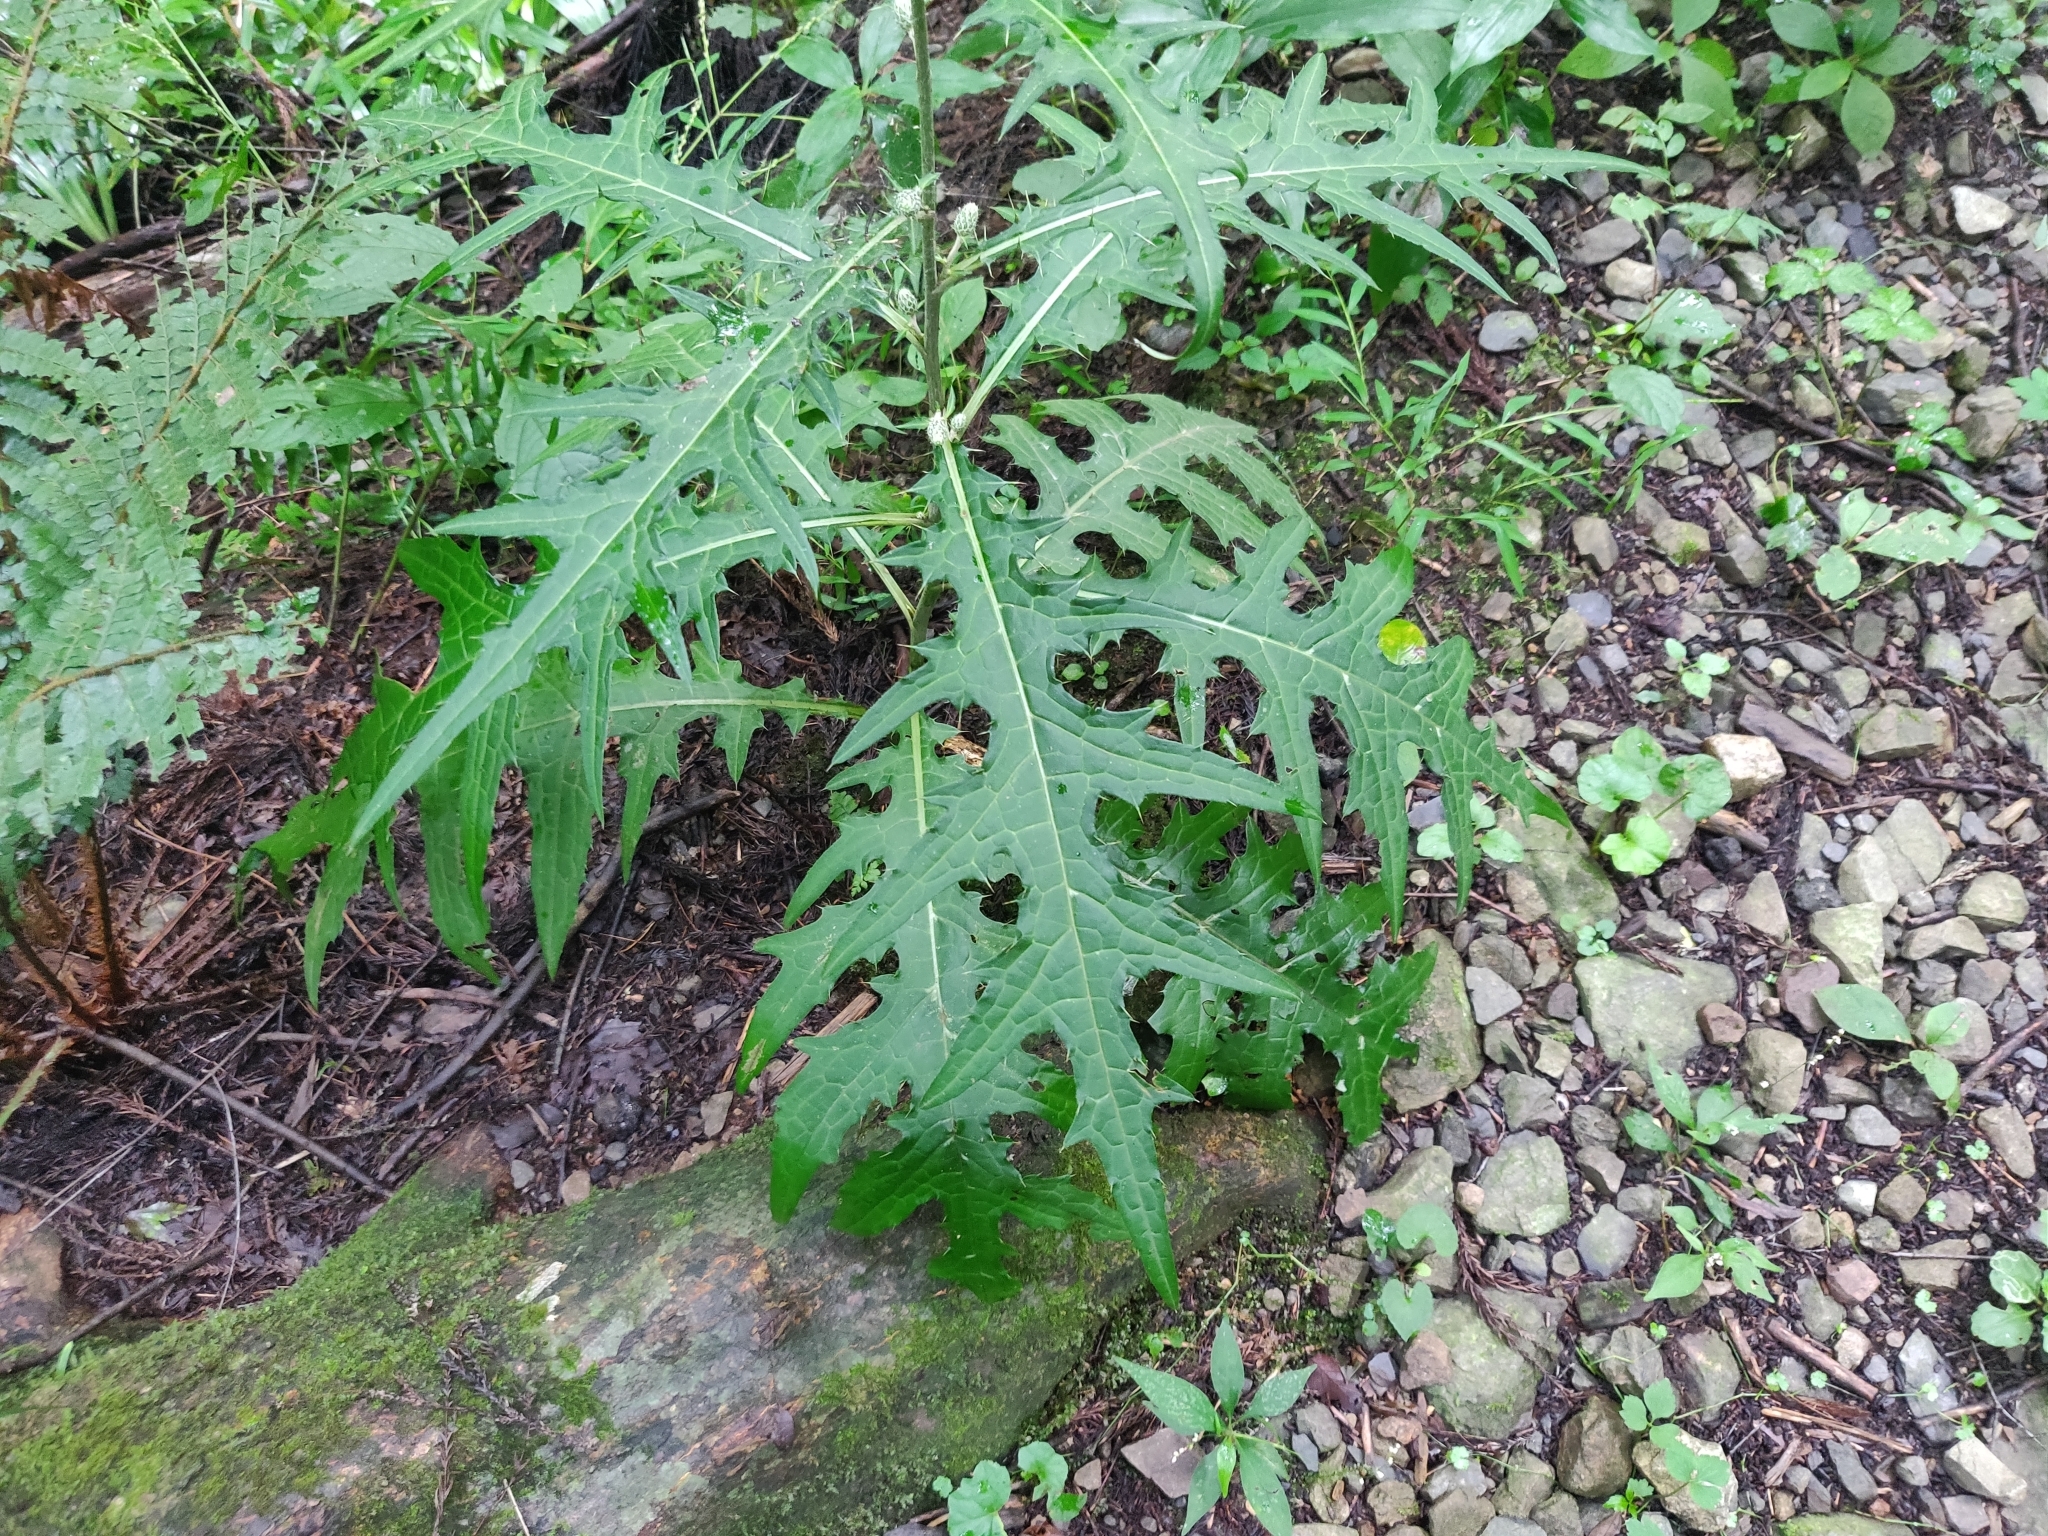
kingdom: Plantae
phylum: Tracheophyta
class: Magnoliopsida
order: Asterales
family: Asteraceae
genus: Cirsium
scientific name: Cirsium microspicatum
